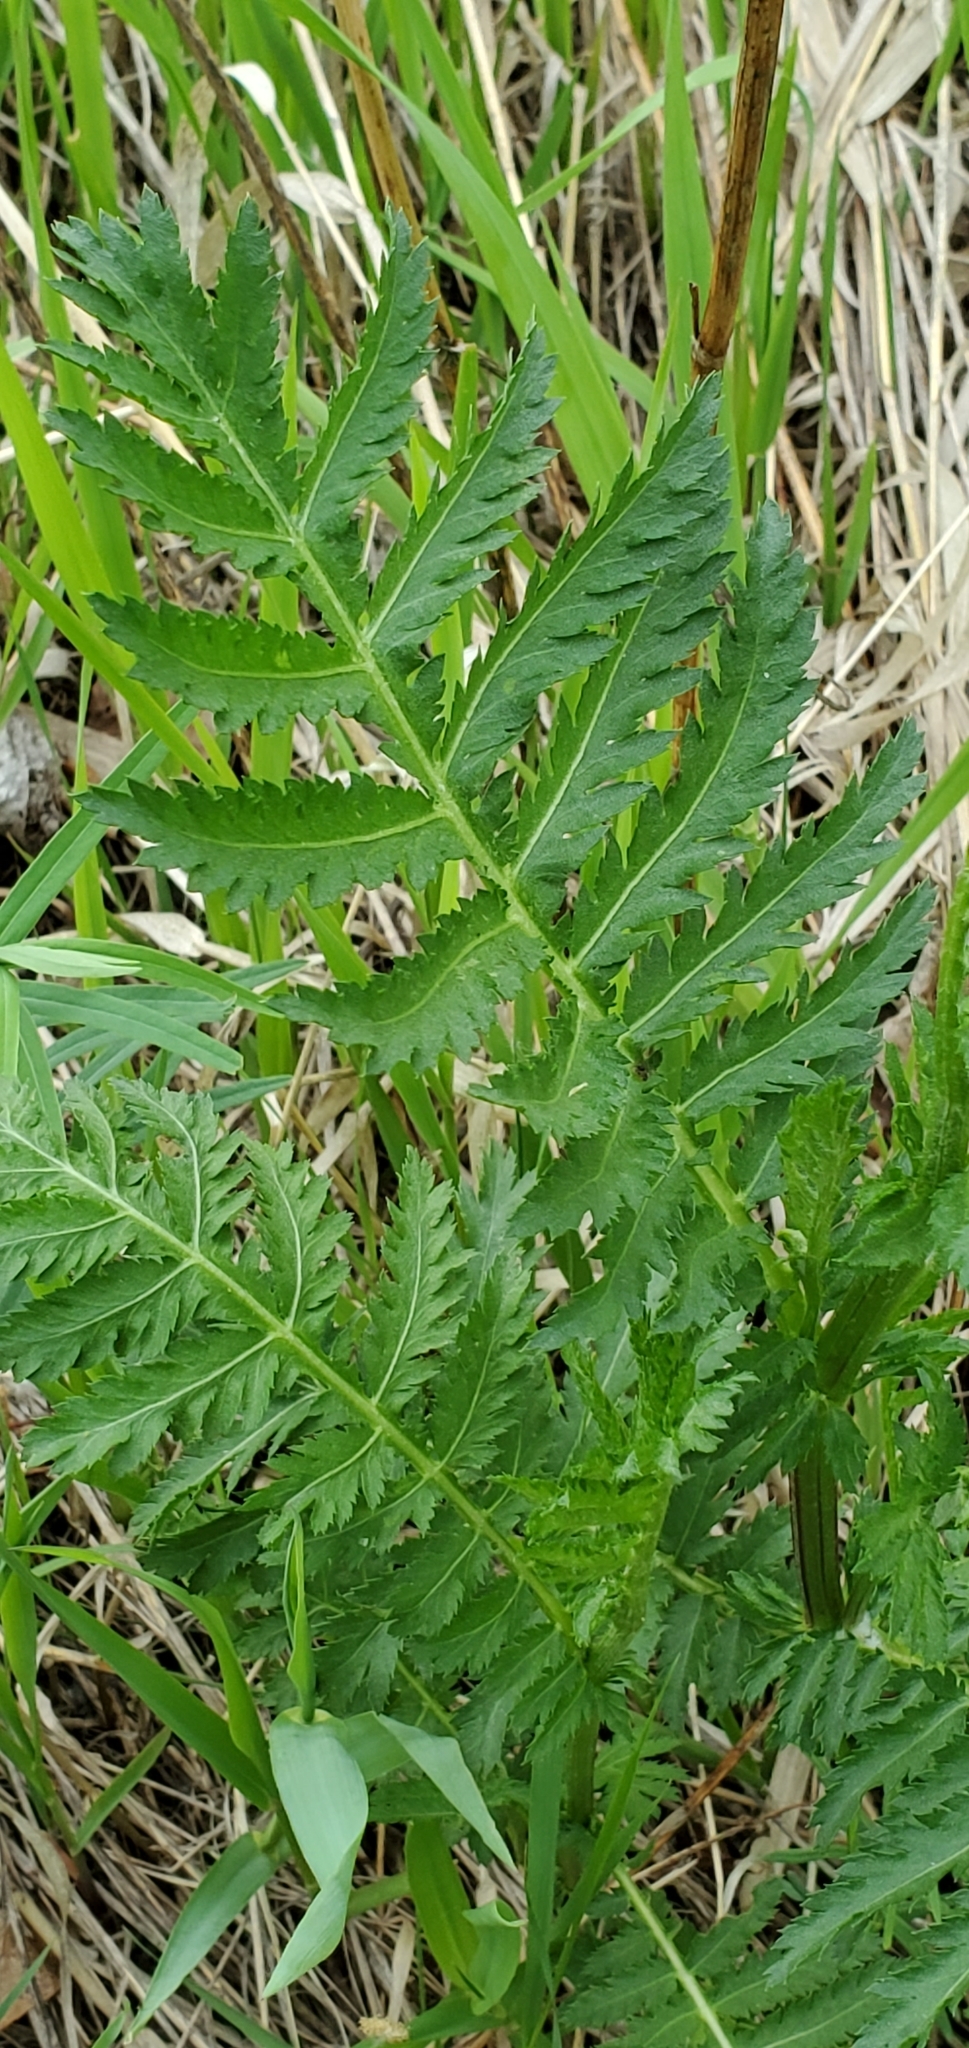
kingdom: Plantae
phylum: Tracheophyta
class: Magnoliopsida
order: Asterales
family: Asteraceae
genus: Tanacetum
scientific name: Tanacetum vulgare
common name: Common tansy
